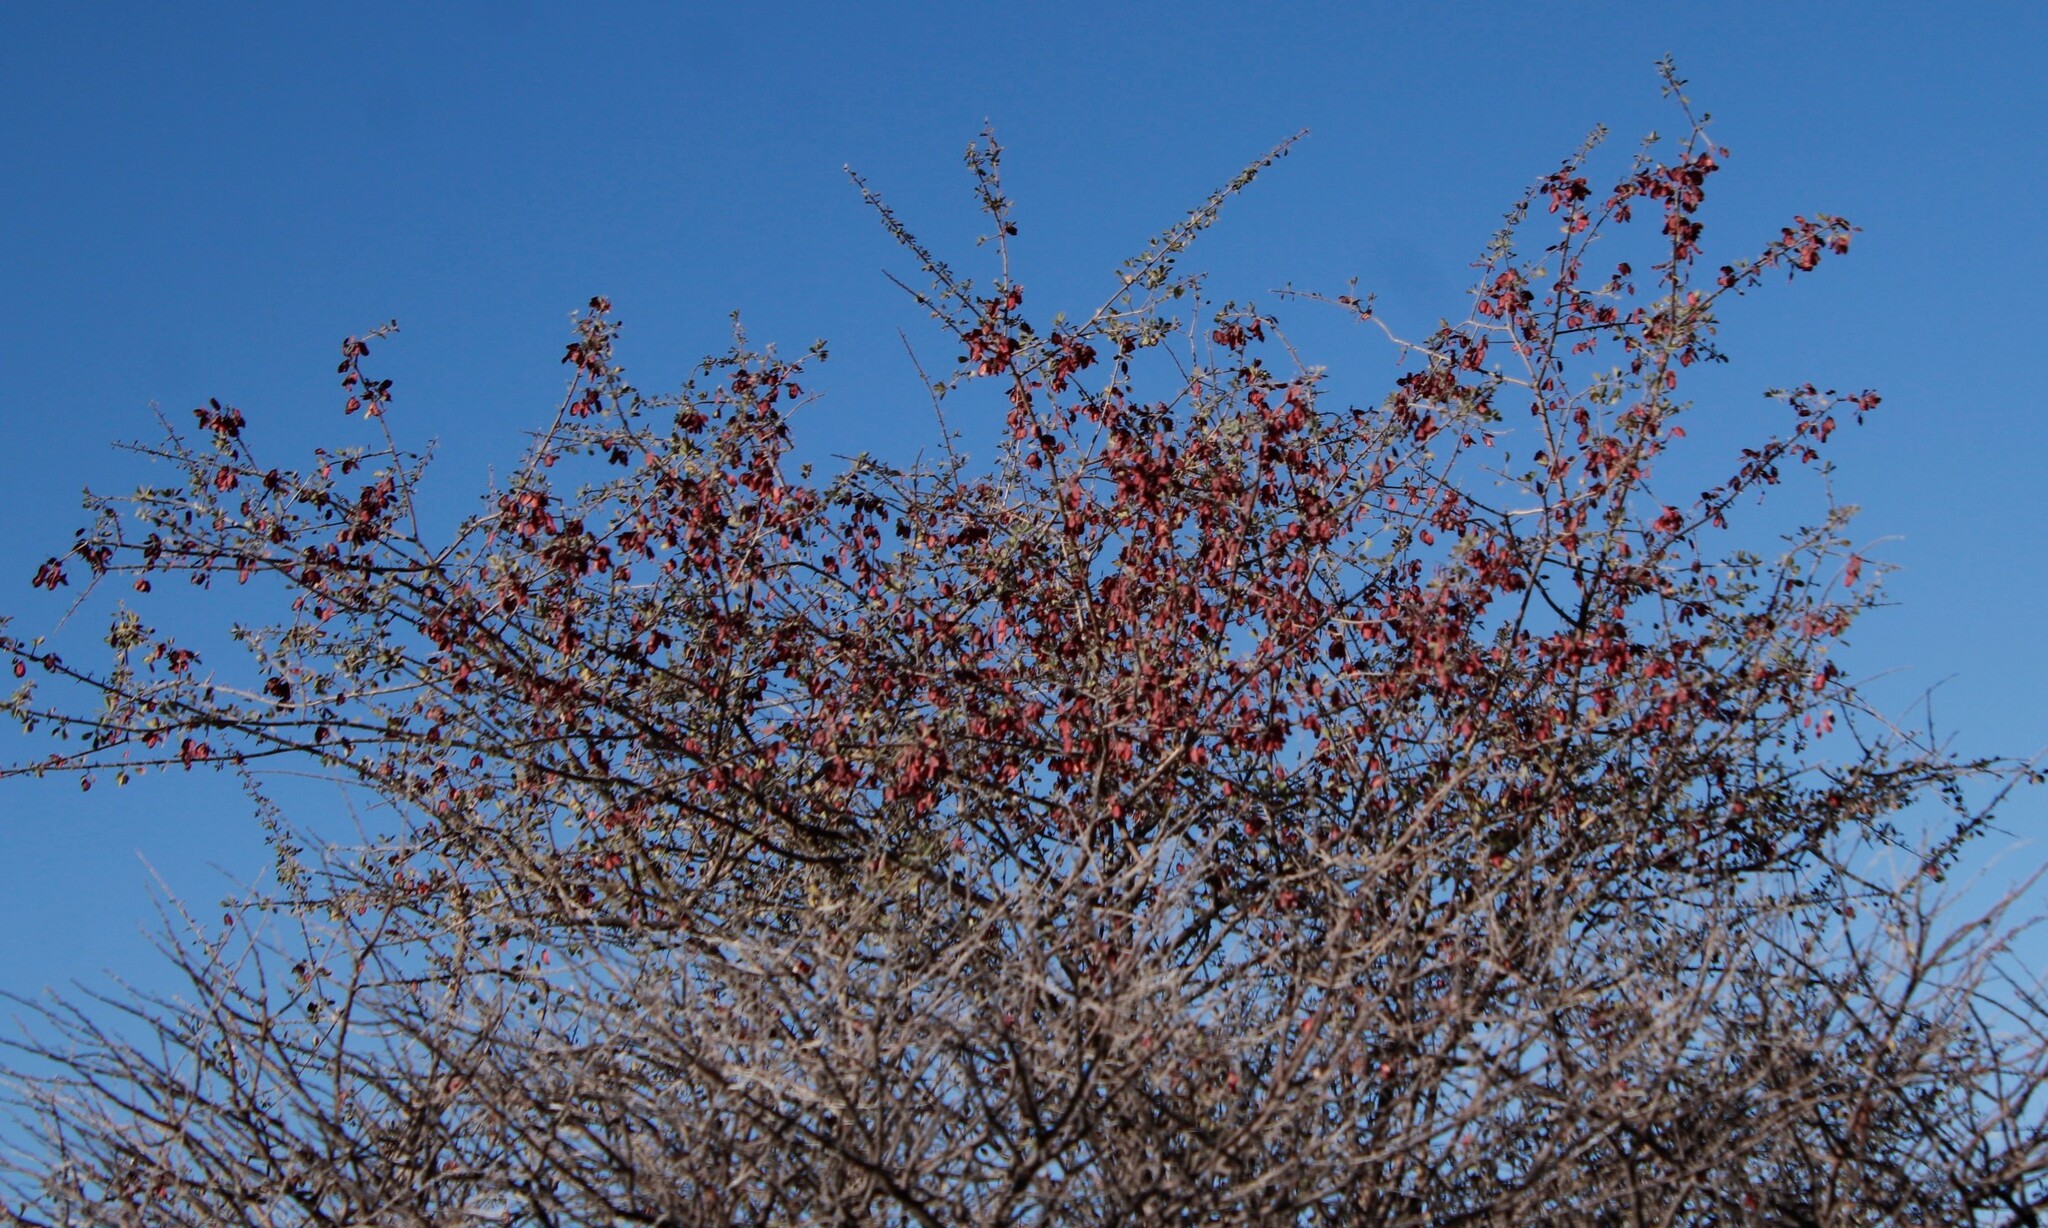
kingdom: Plantae
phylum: Tracheophyta
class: Magnoliopsida
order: Myrtales
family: Combretaceae
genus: Terminalia
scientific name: Terminalia prunioides
